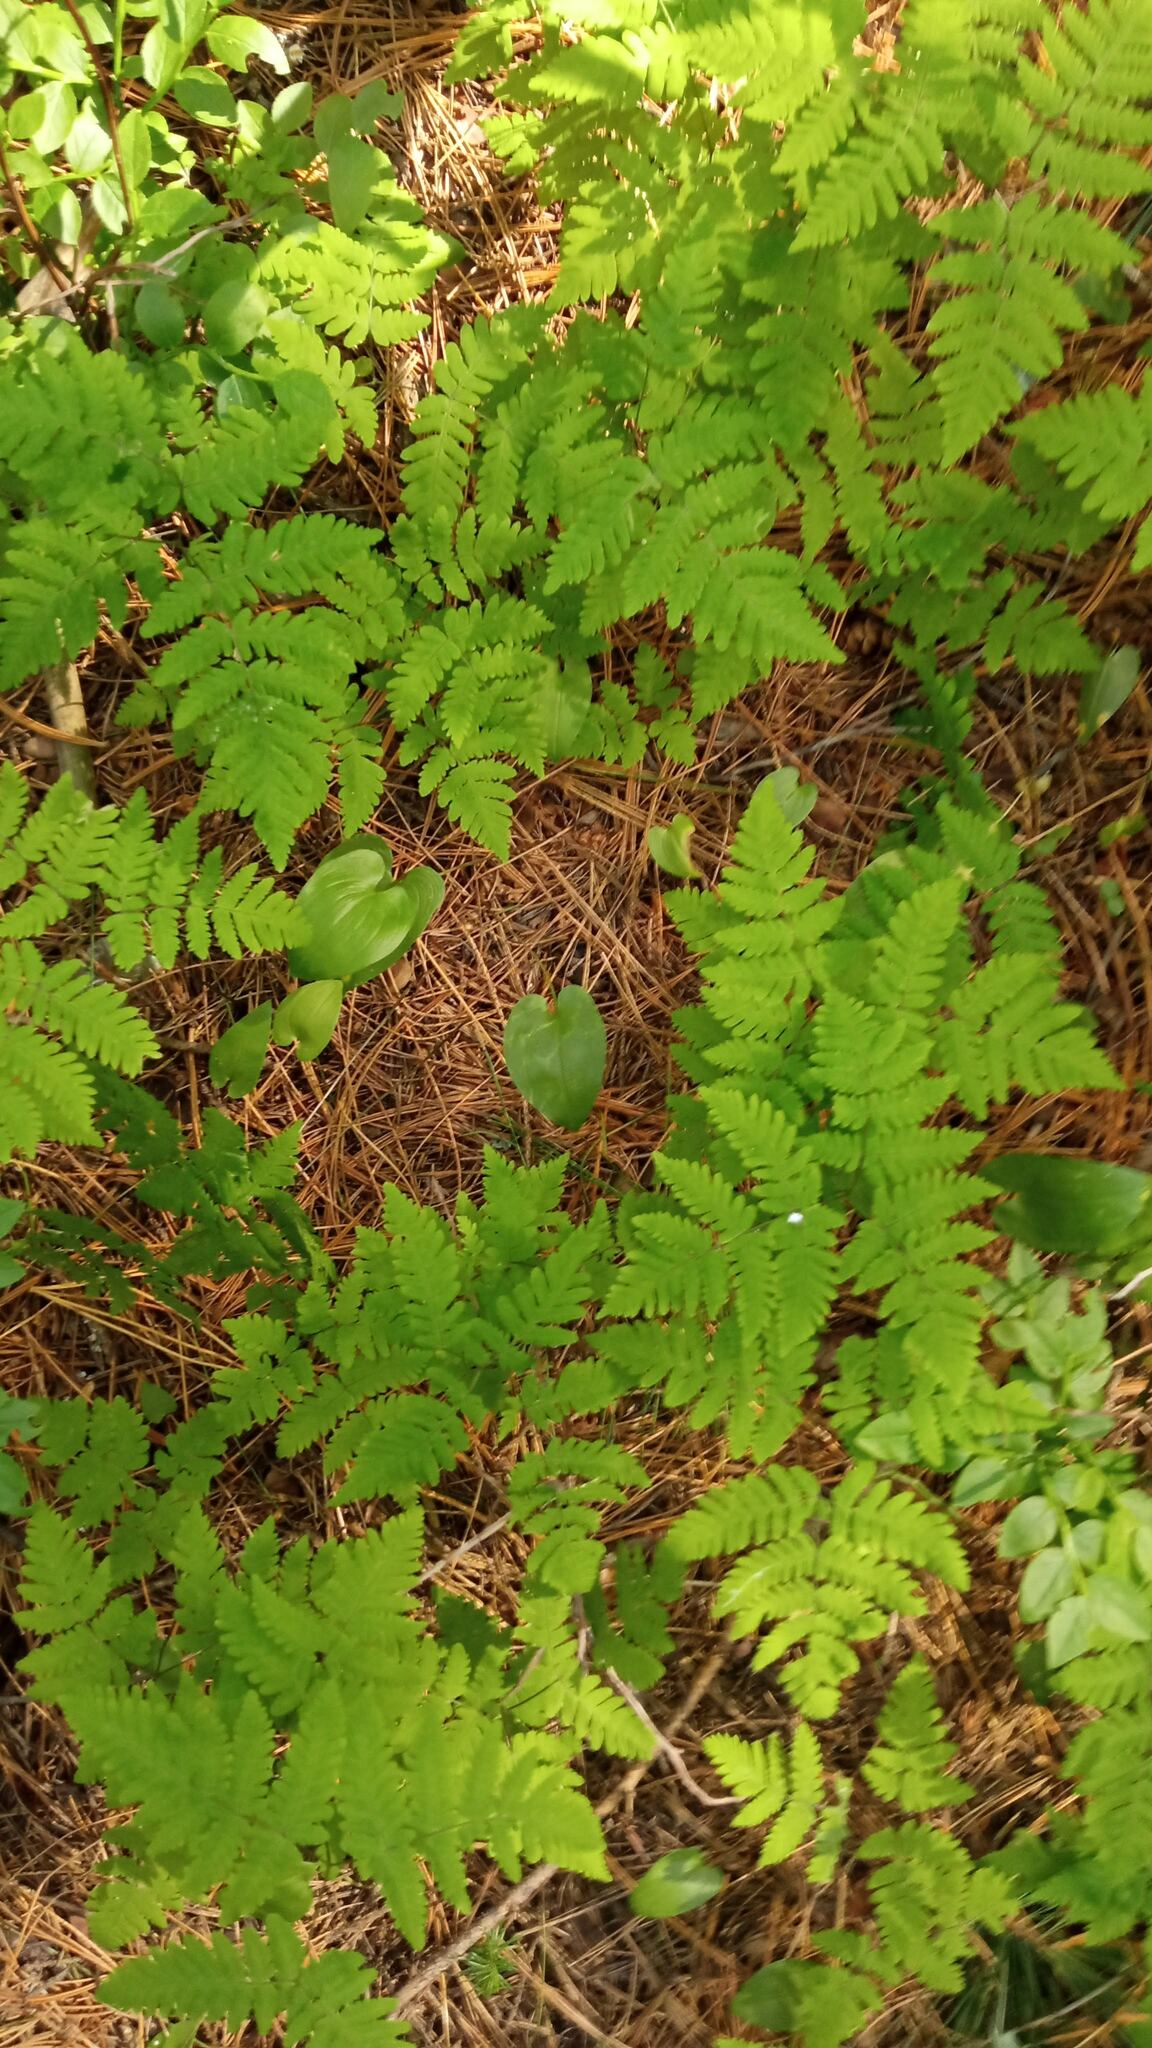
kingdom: Plantae
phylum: Tracheophyta
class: Polypodiopsida
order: Polypodiales
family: Cystopteridaceae
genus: Gymnocarpium
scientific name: Gymnocarpium dryopteris
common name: Oak fern
